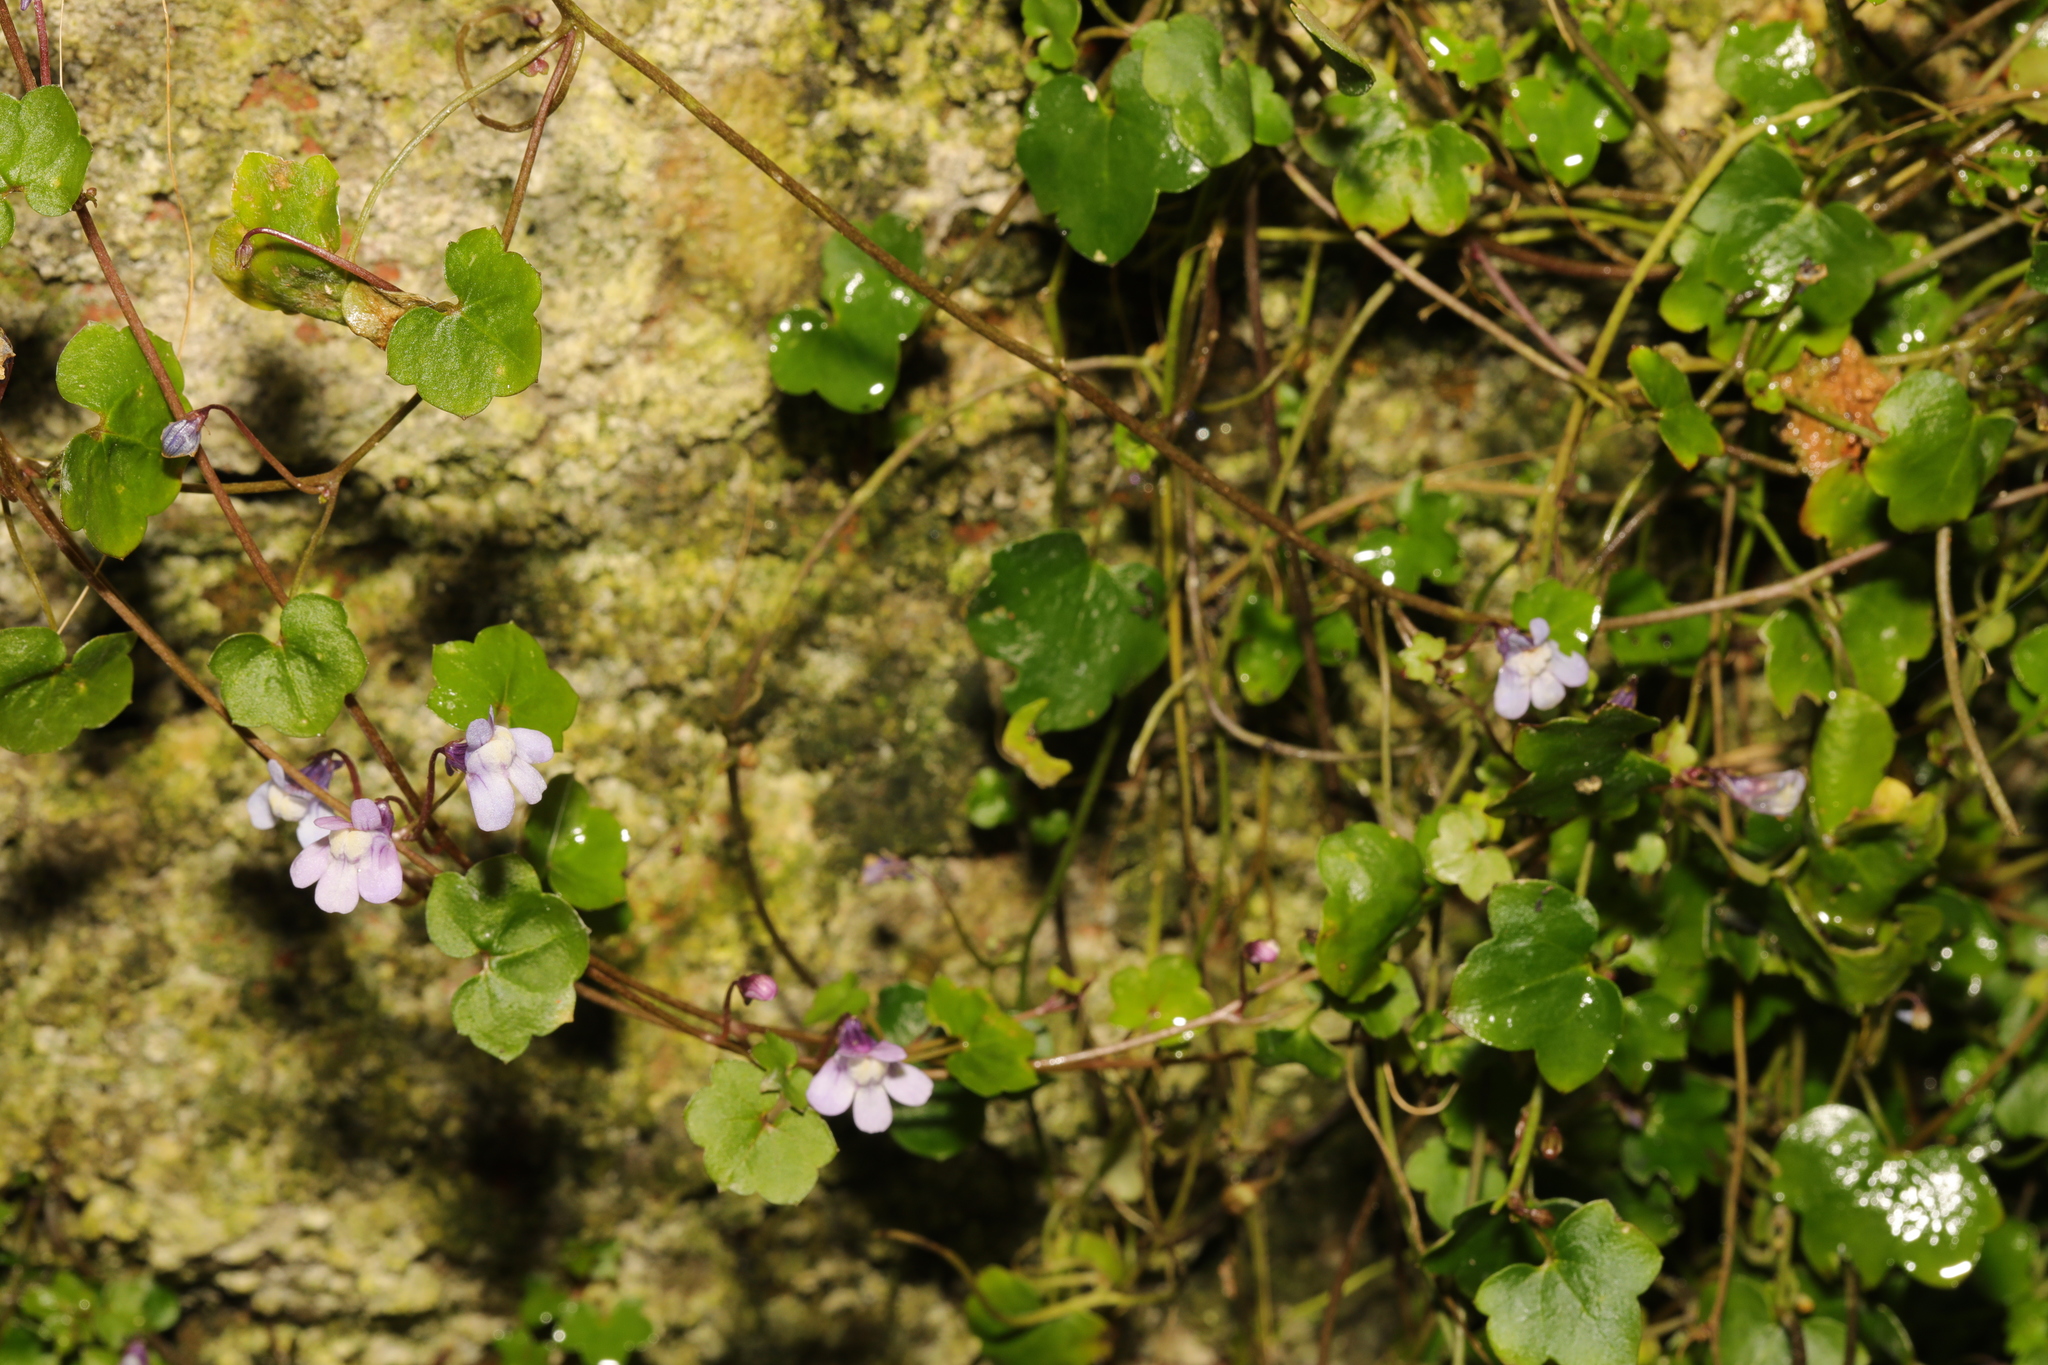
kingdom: Plantae
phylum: Tracheophyta
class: Magnoliopsida
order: Lamiales
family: Plantaginaceae
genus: Cymbalaria
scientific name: Cymbalaria muralis
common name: Ivy-leaved toadflax
